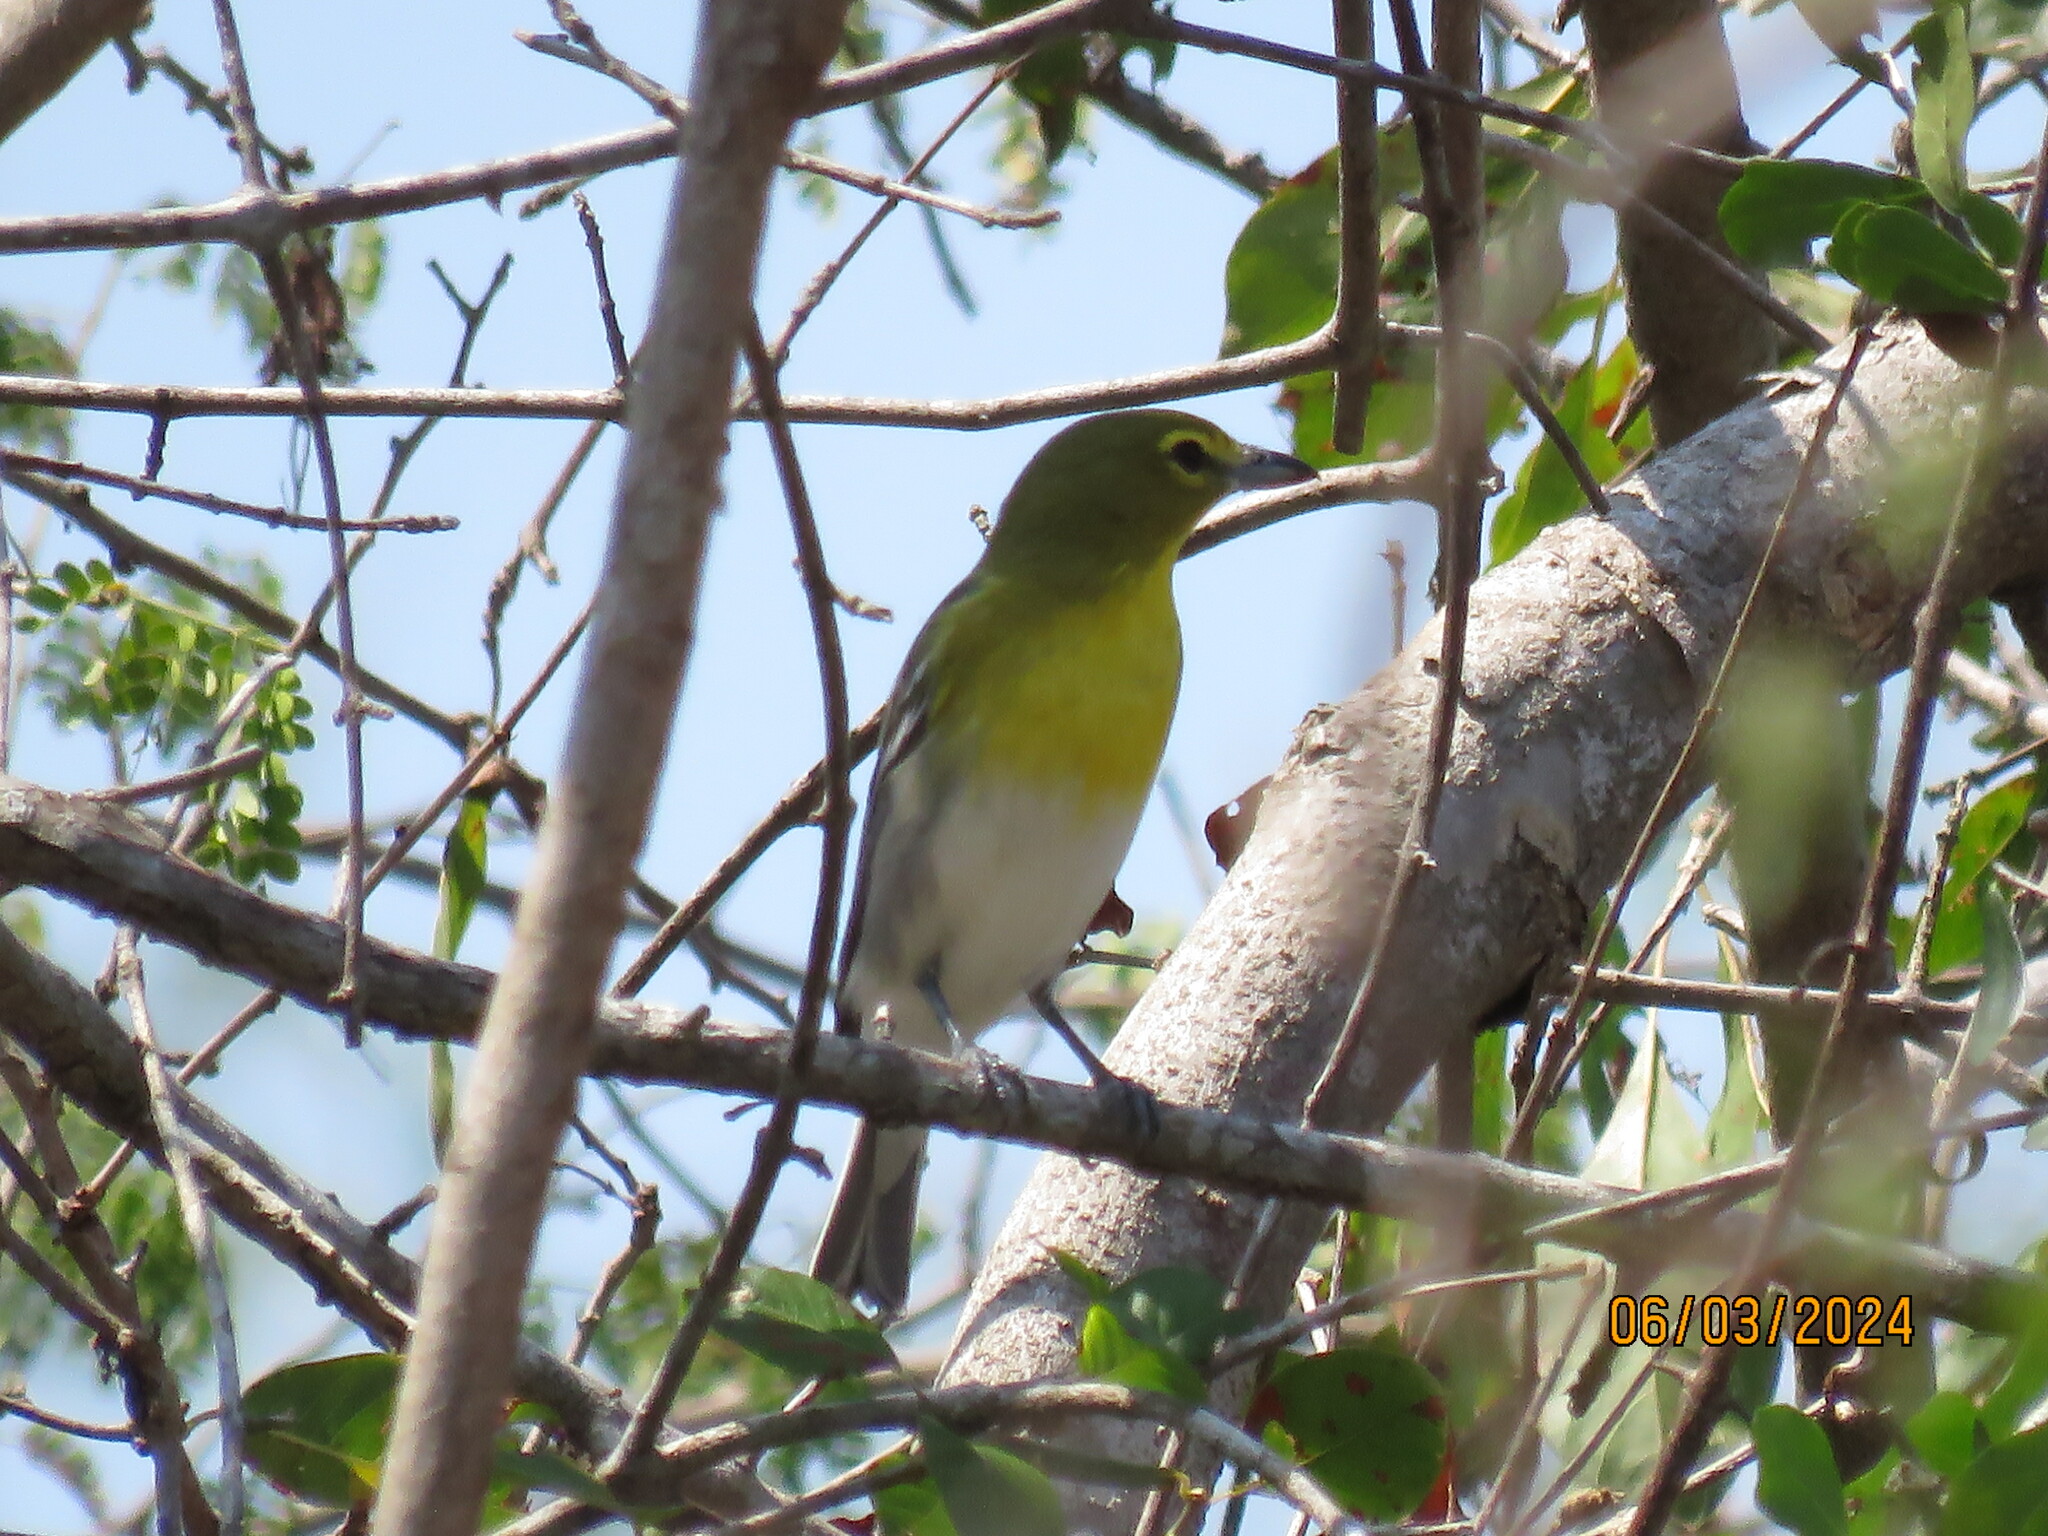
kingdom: Animalia
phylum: Chordata
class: Aves
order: Passeriformes
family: Vireonidae
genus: Vireo
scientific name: Vireo flavifrons
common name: Yellow-throated vireo
